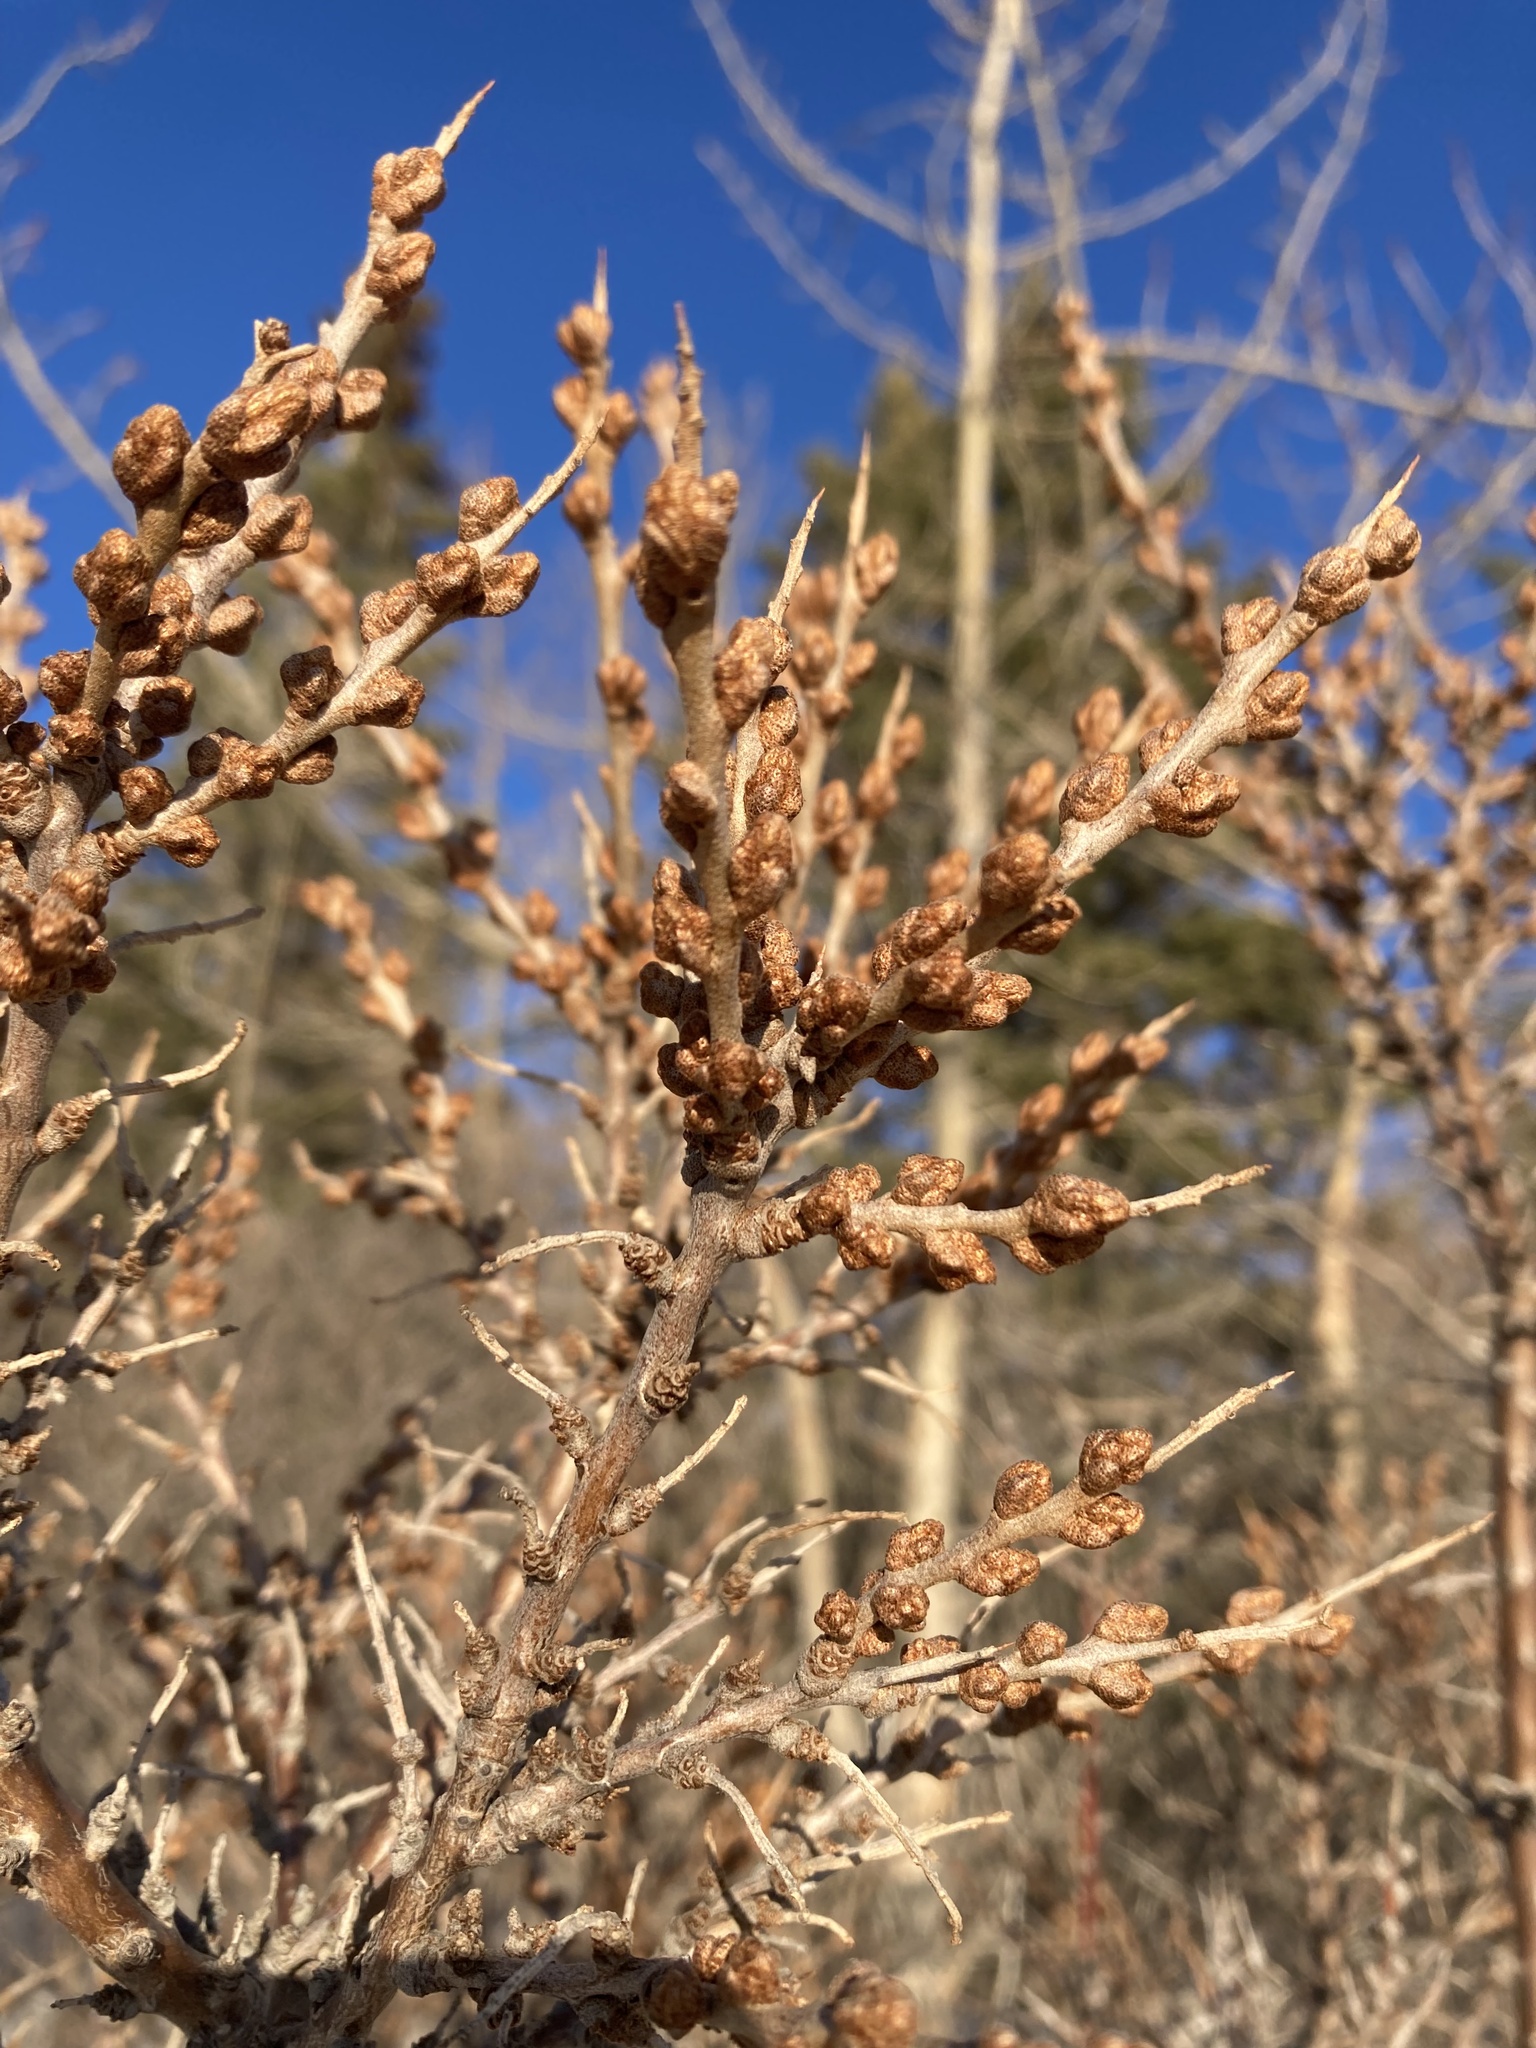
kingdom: Plantae
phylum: Tracheophyta
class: Magnoliopsida
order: Rosales
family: Elaeagnaceae
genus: Hippophae
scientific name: Hippophae rhamnoides
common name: Sea-buckthorn
